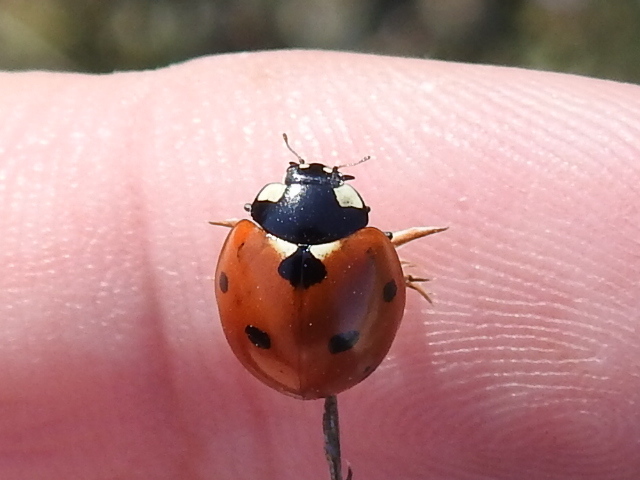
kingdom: Animalia
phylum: Arthropoda
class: Insecta
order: Coleoptera
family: Coccinellidae
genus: Coccinella
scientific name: Coccinella septempunctata
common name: Sevenspotted lady beetle
